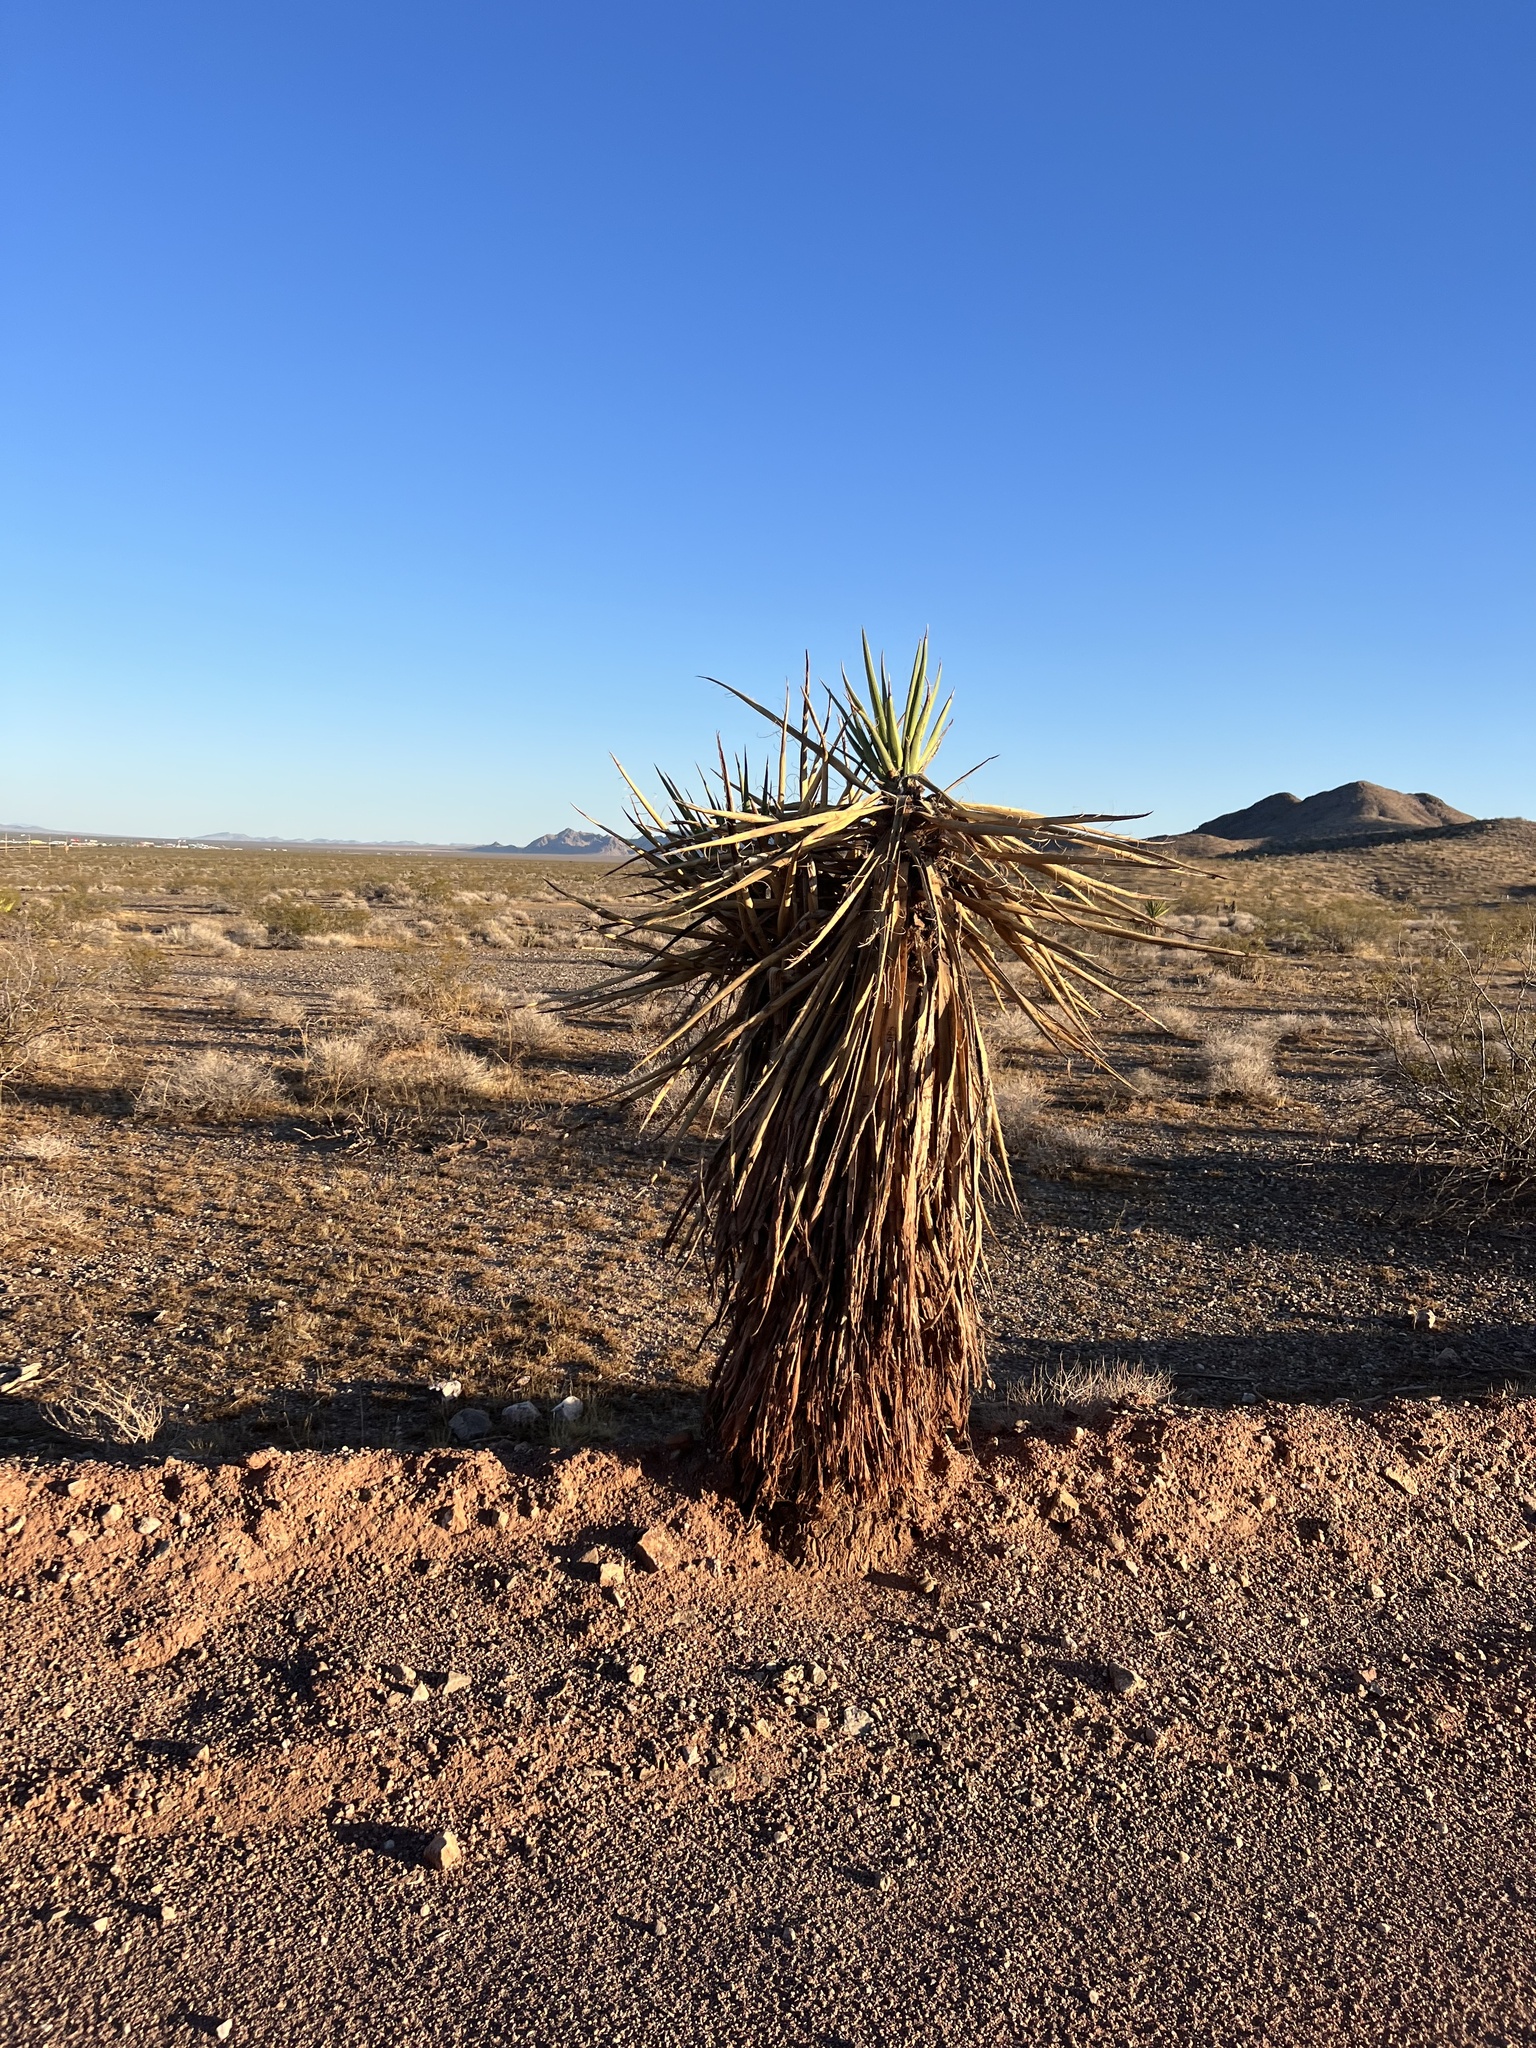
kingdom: Plantae
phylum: Tracheophyta
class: Liliopsida
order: Asparagales
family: Asparagaceae
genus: Yucca
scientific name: Yucca schidigera
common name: Mojave yucca
